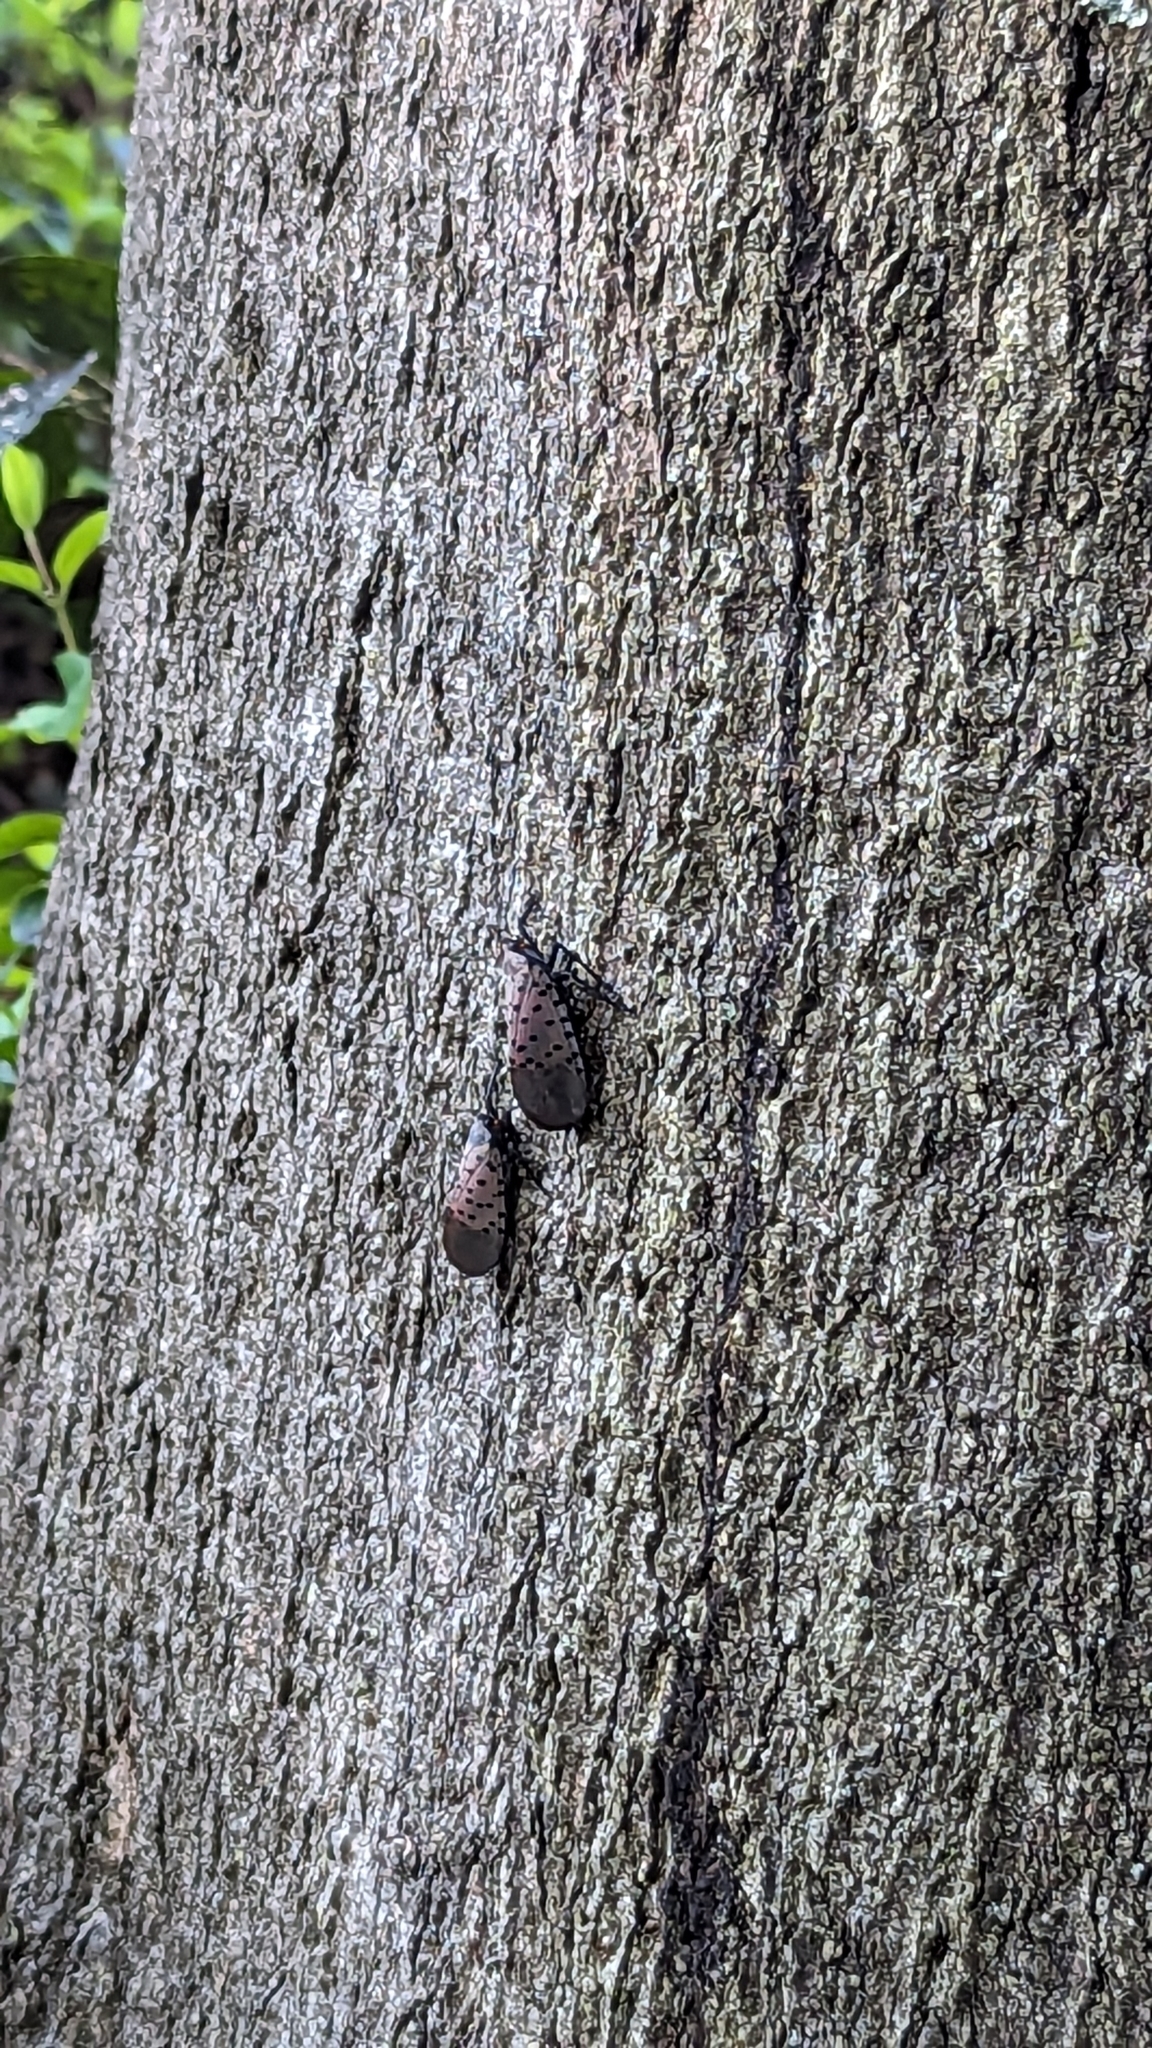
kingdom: Animalia
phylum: Arthropoda
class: Insecta
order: Hemiptera
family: Fulgoridae
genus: Lycorma
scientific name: Lycorma delicatula
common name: Spotted lanternfly
